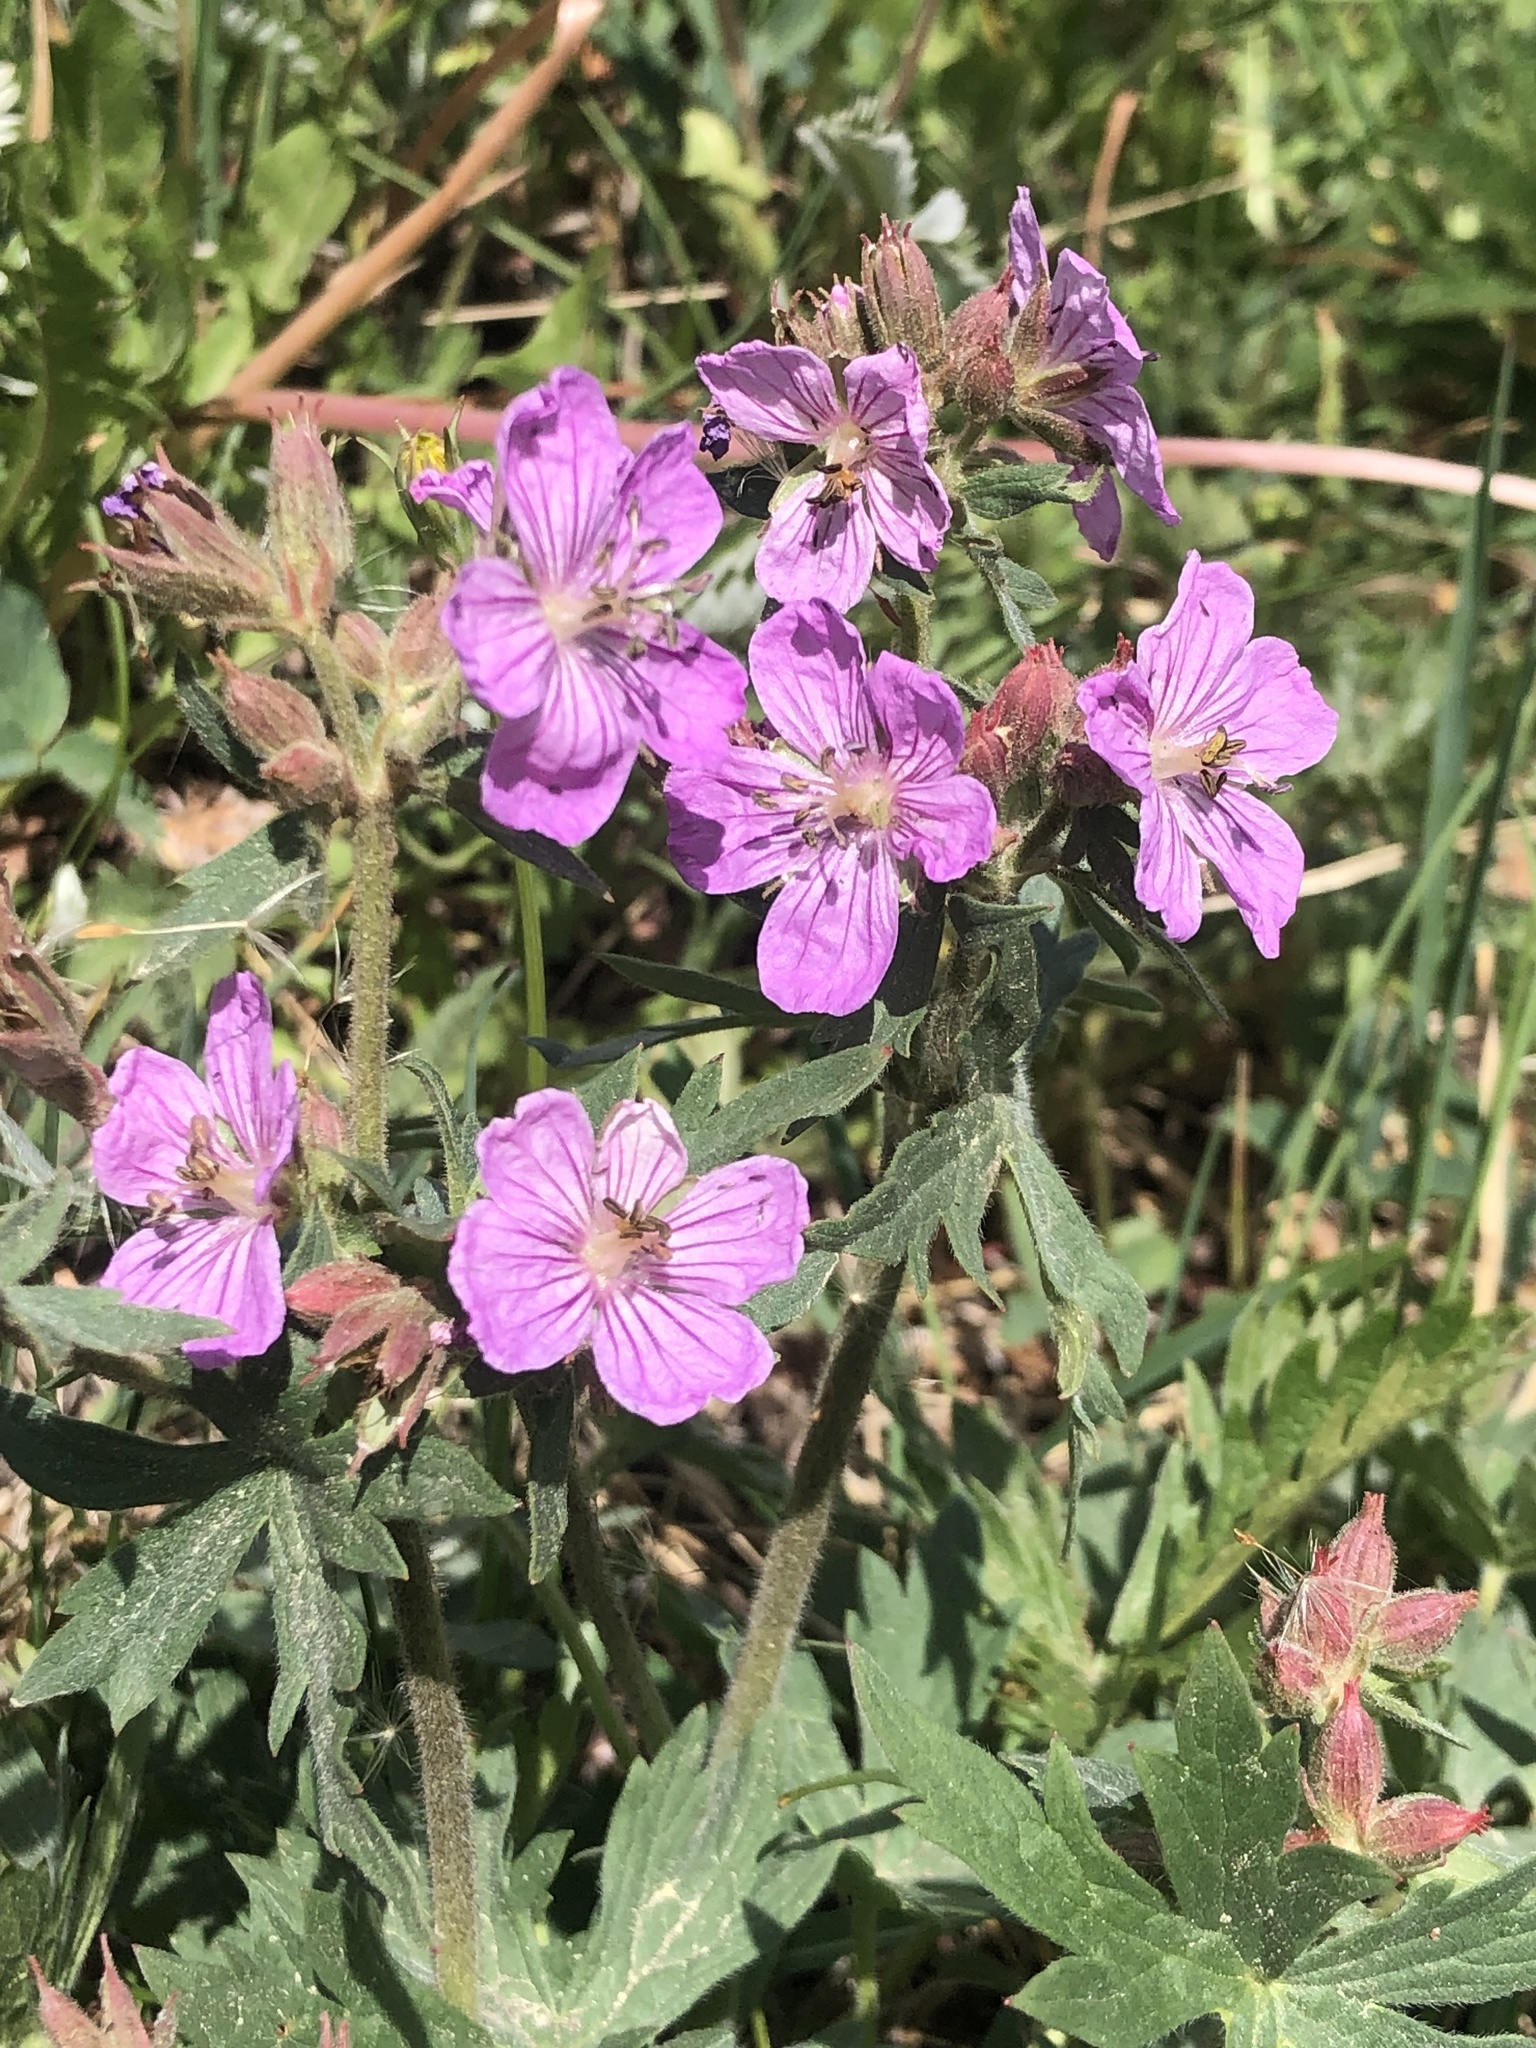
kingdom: Plantae
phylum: Tracheophyta
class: Magnoliopsida
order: Geraniales
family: Geraniaceae
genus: Geranium
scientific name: Geranium viscosissimum
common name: Purple geranium
